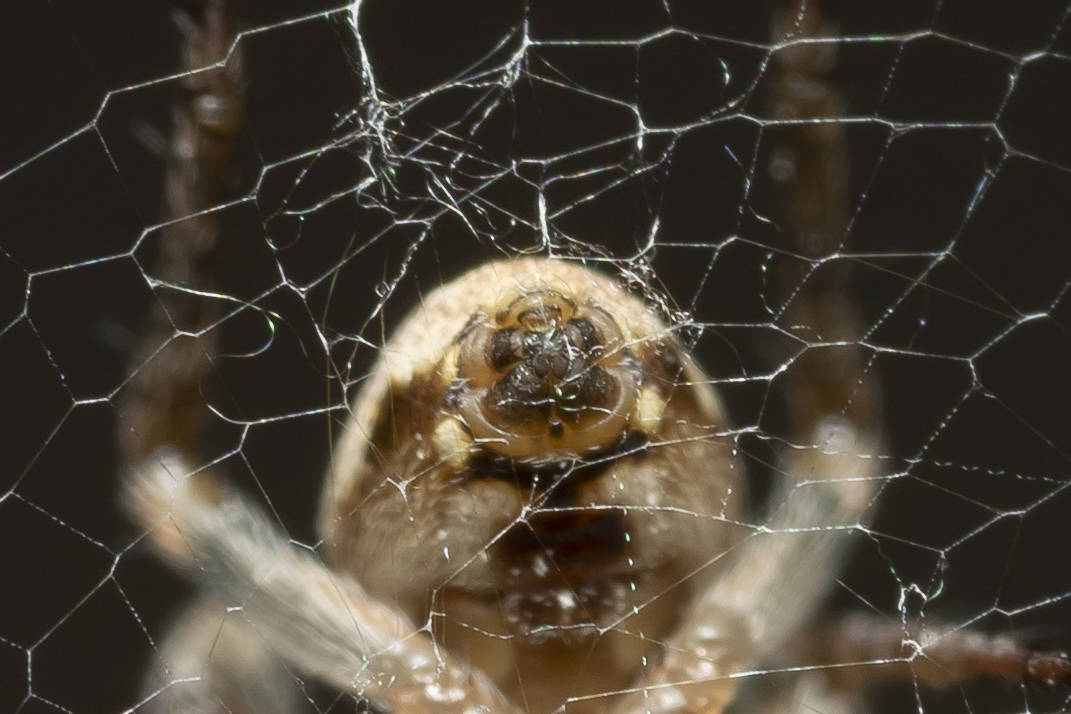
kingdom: Animalia
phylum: Arthropoda
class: Arachnida
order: Araneae
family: Araneidae
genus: Zilla
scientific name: Zilla diodia
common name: Zilla diodia
